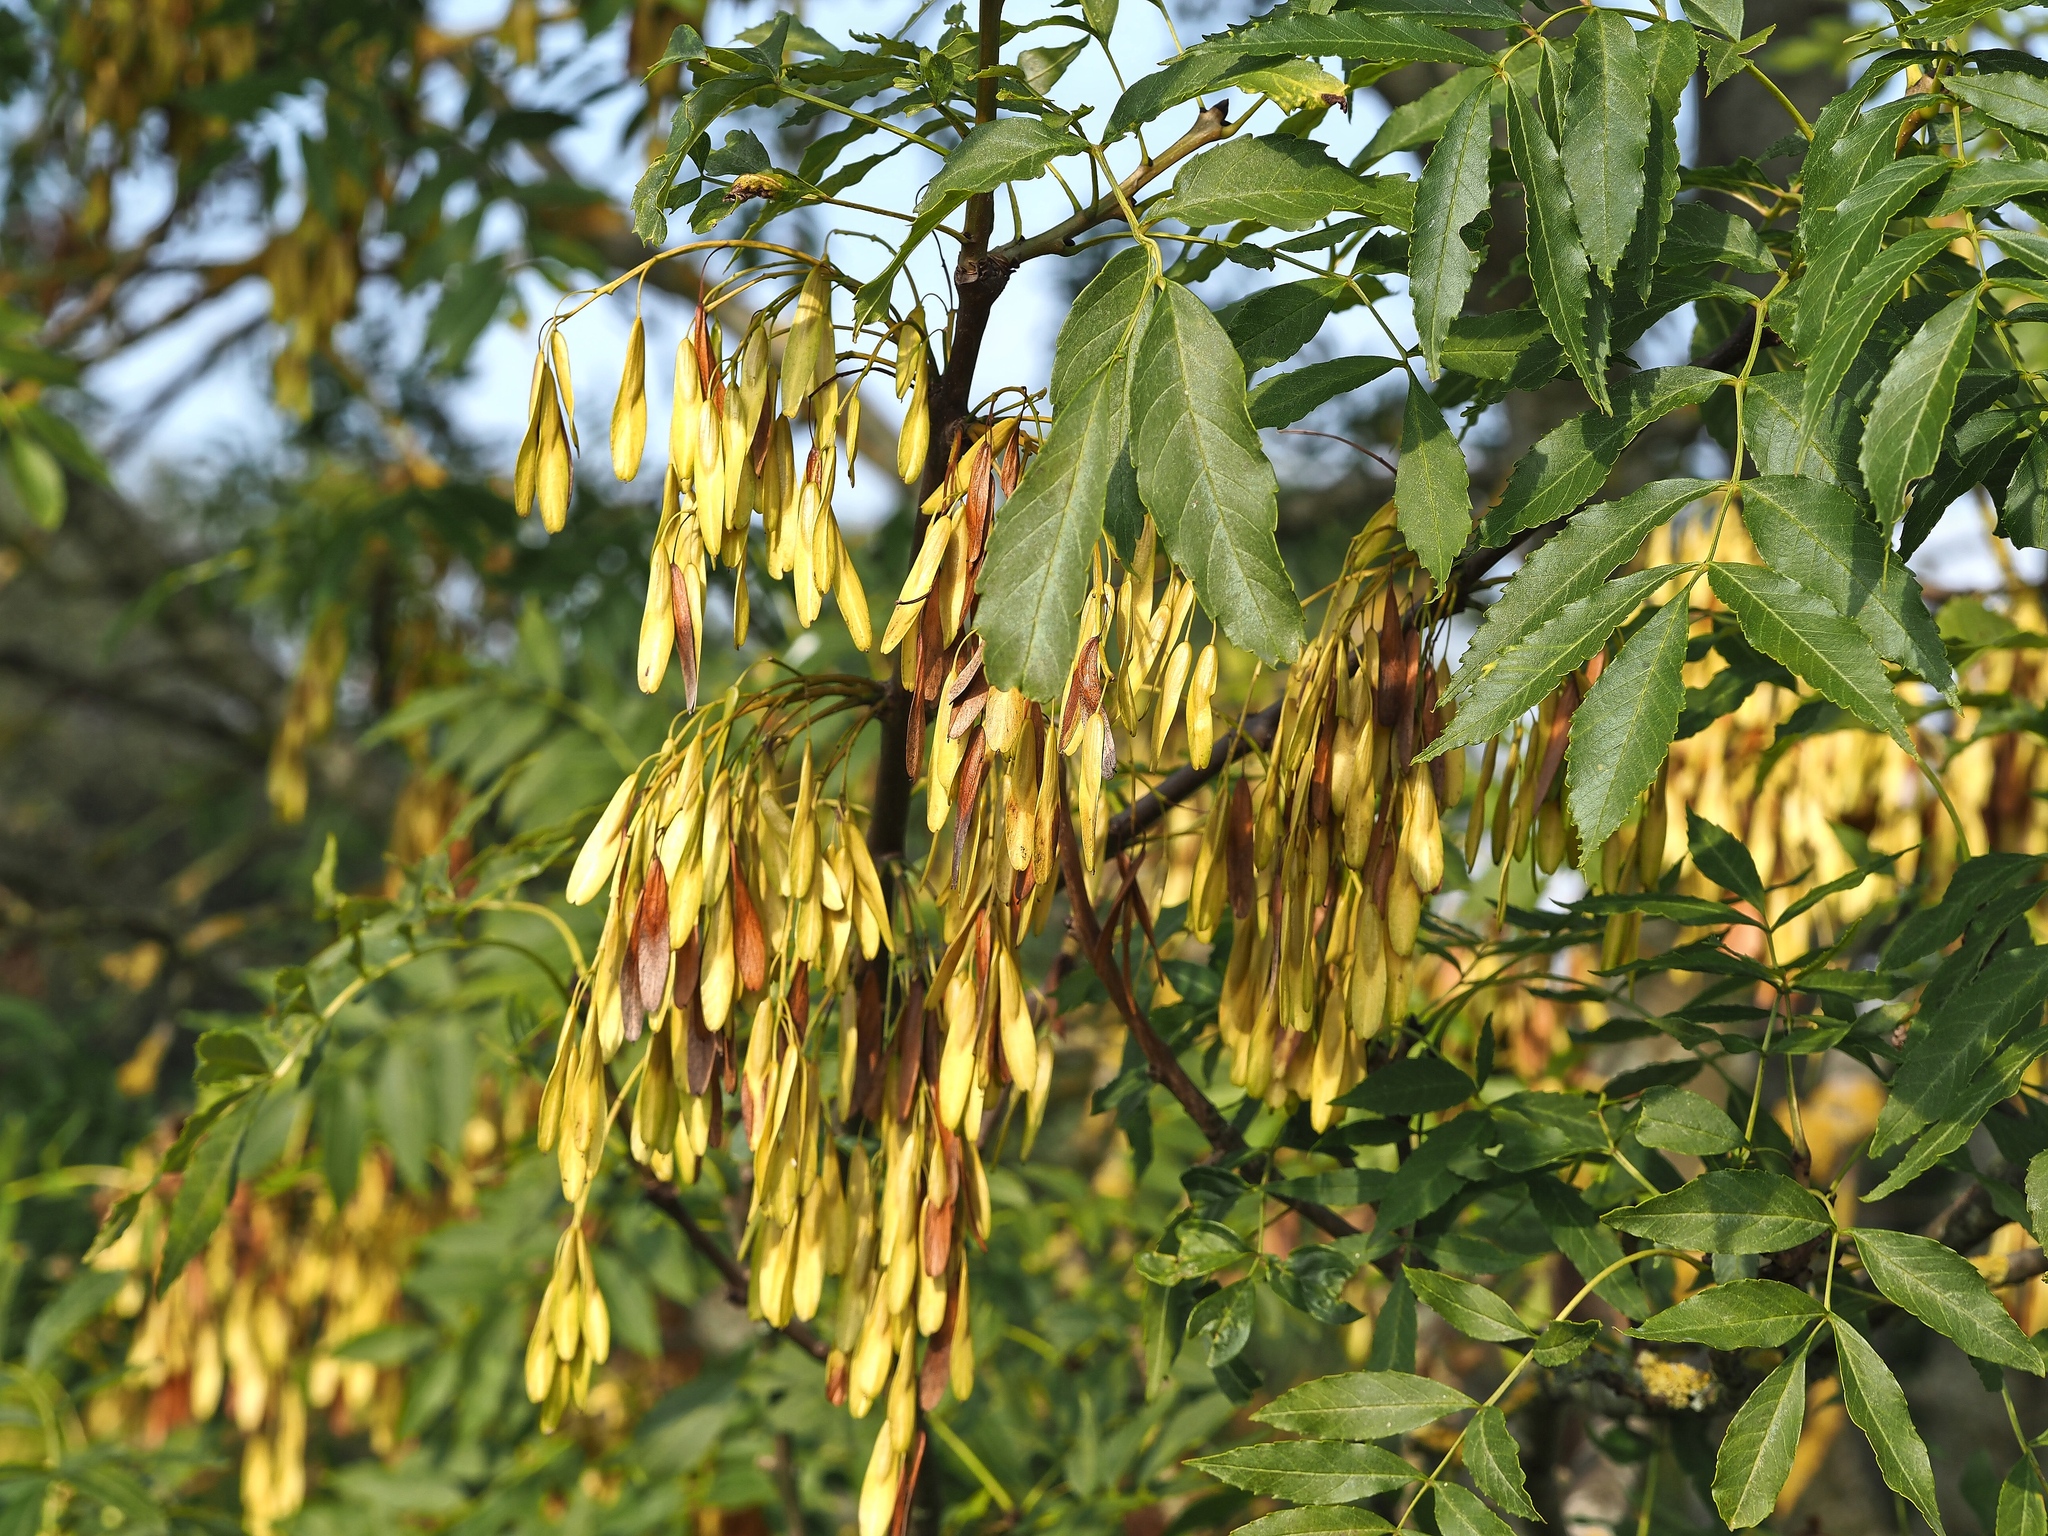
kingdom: Plantae
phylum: Tracheophyta
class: Magnoliopsida
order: Lamiales
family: Oleaceae
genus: Fraxinus
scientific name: Fraxinus excelsior
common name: European ash
